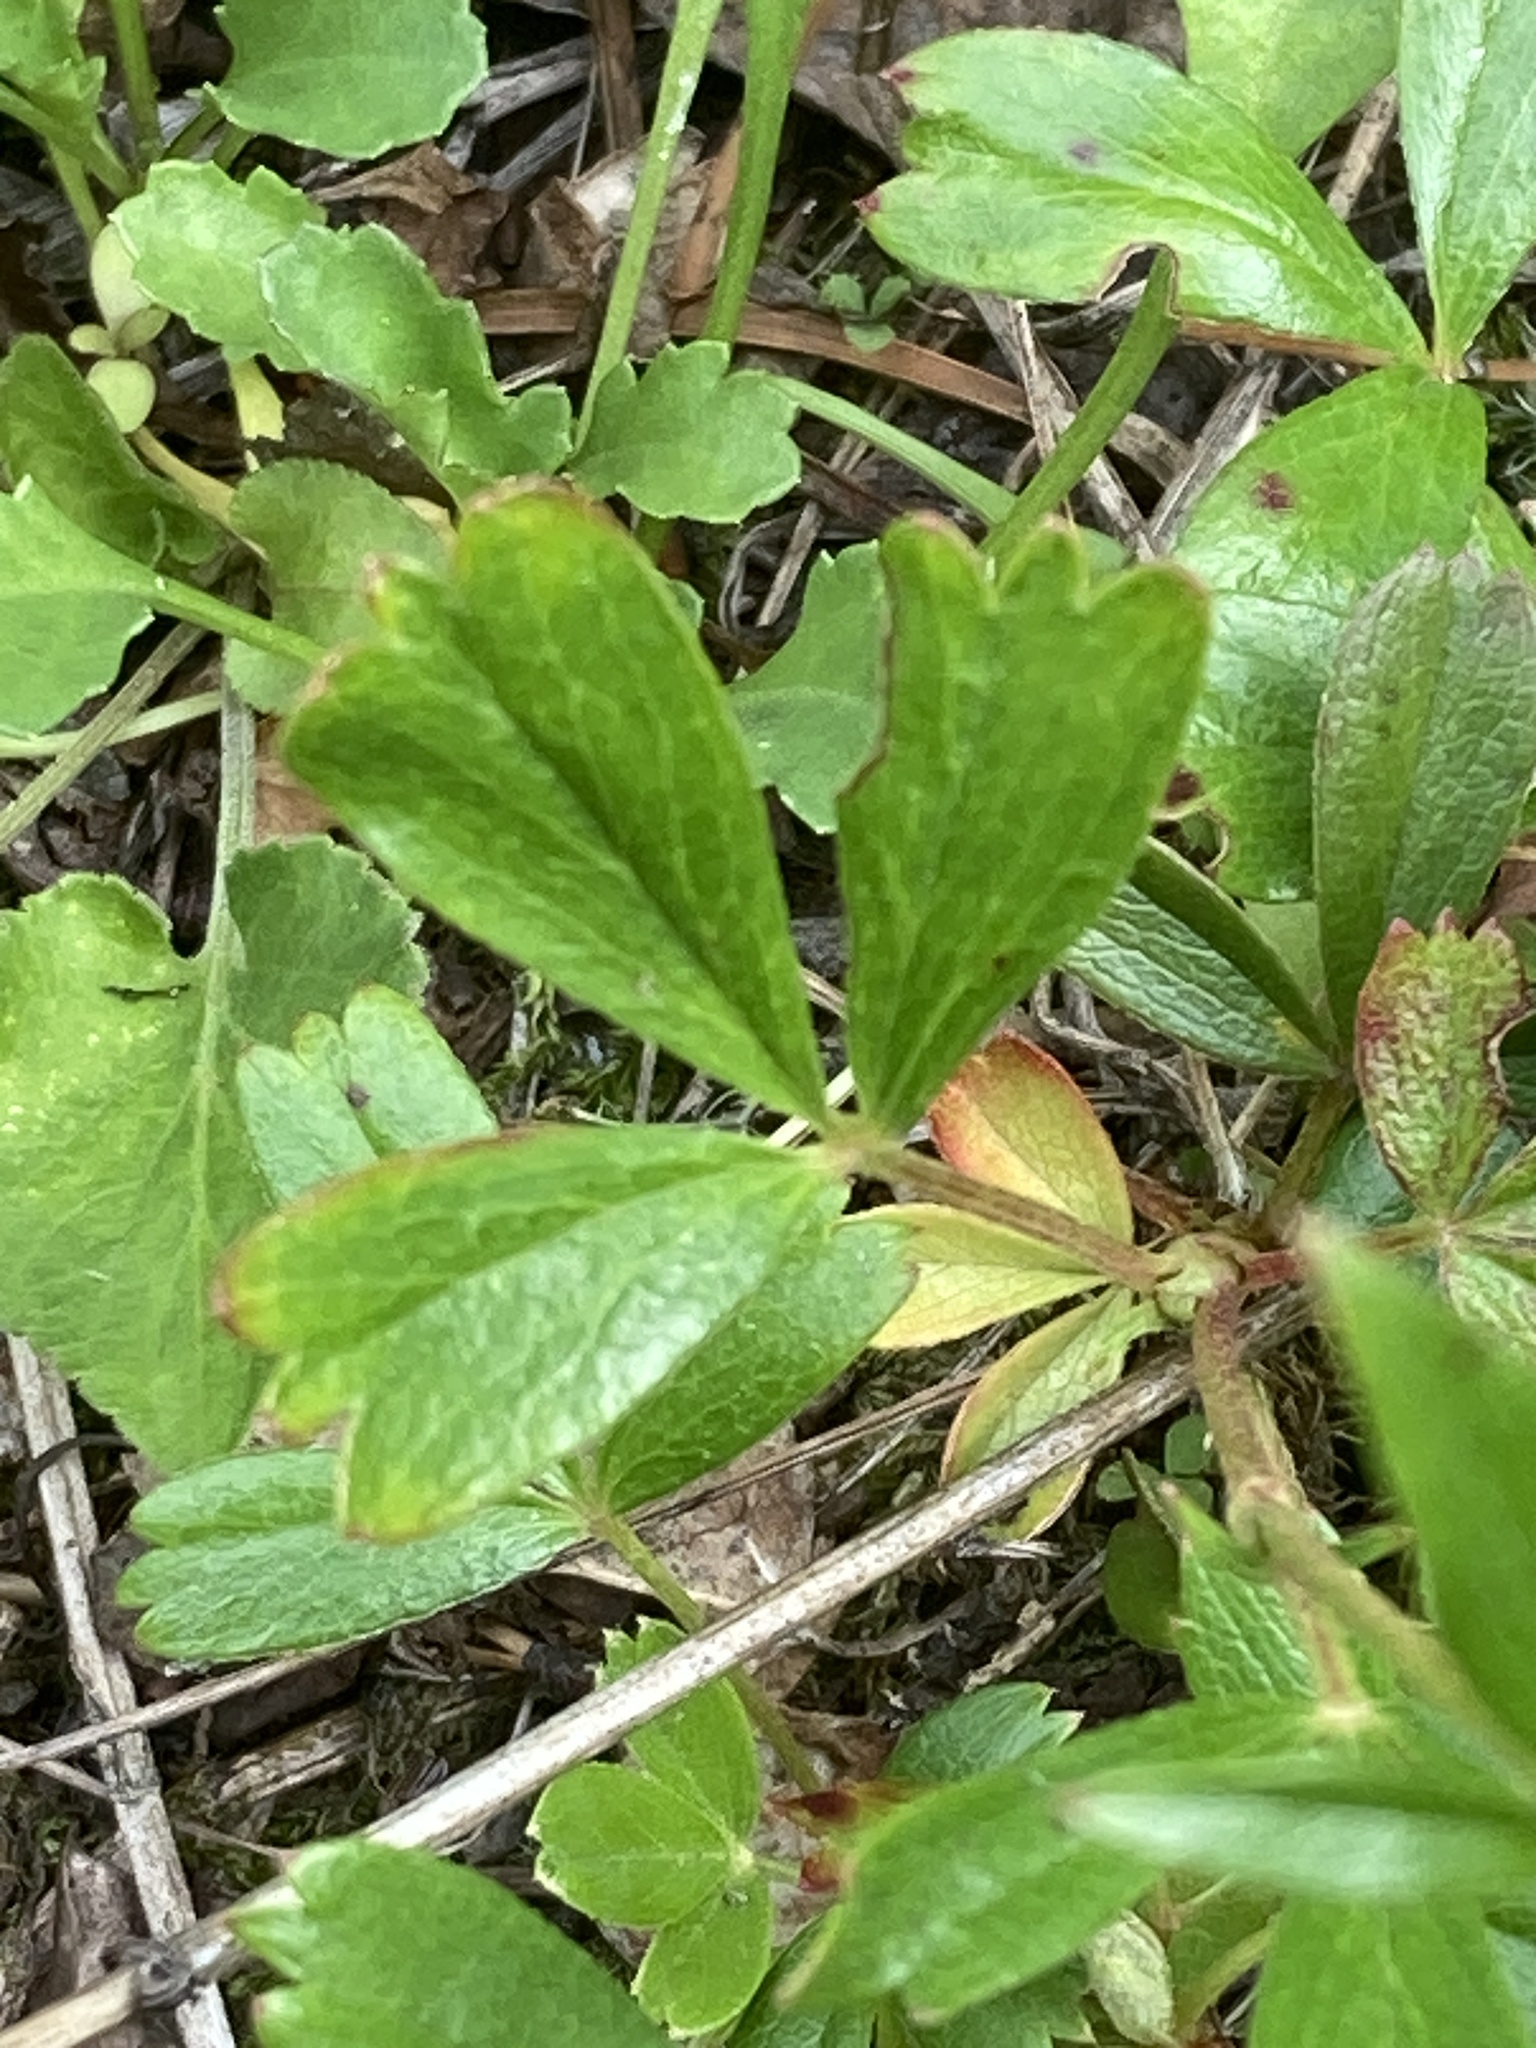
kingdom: Plantae
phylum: Tracheophyta
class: Magnoliopsida
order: Rosales
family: Rosaceae
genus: Sibbaldia
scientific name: Sibbaldia tridentata
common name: Three-toothed cinquefoil
